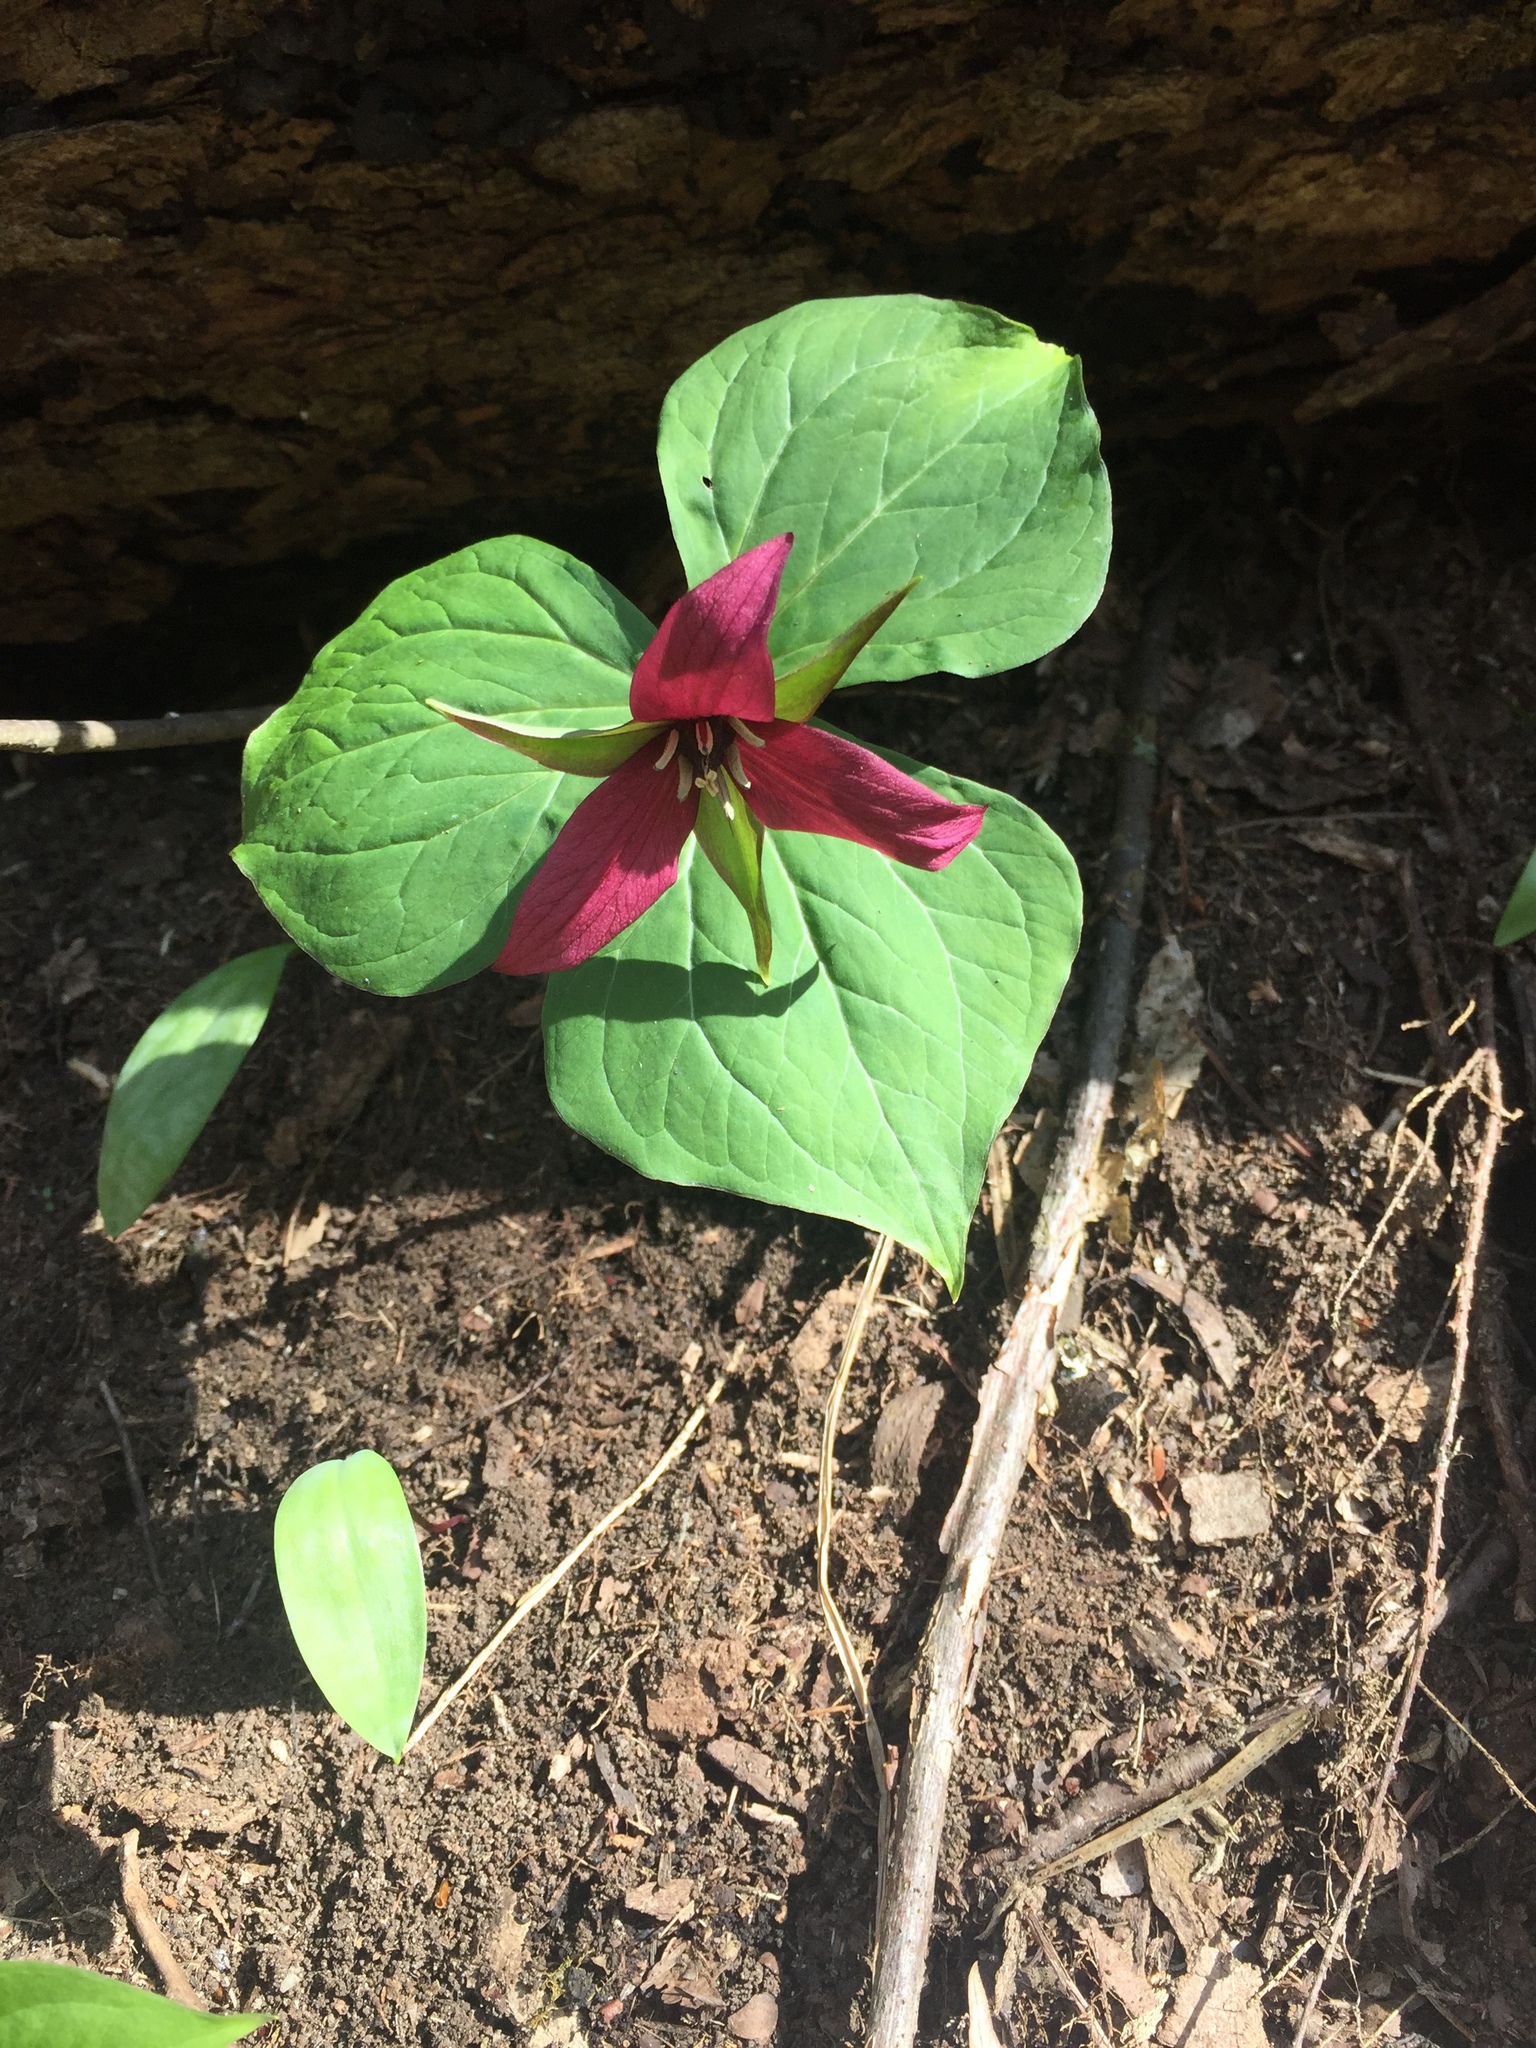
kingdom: Plantae
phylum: Tracheophyta
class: Liliopsida
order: Liliales
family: Melanthiaceae
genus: Trillium
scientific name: Trillium erectum
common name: Purple trillium
